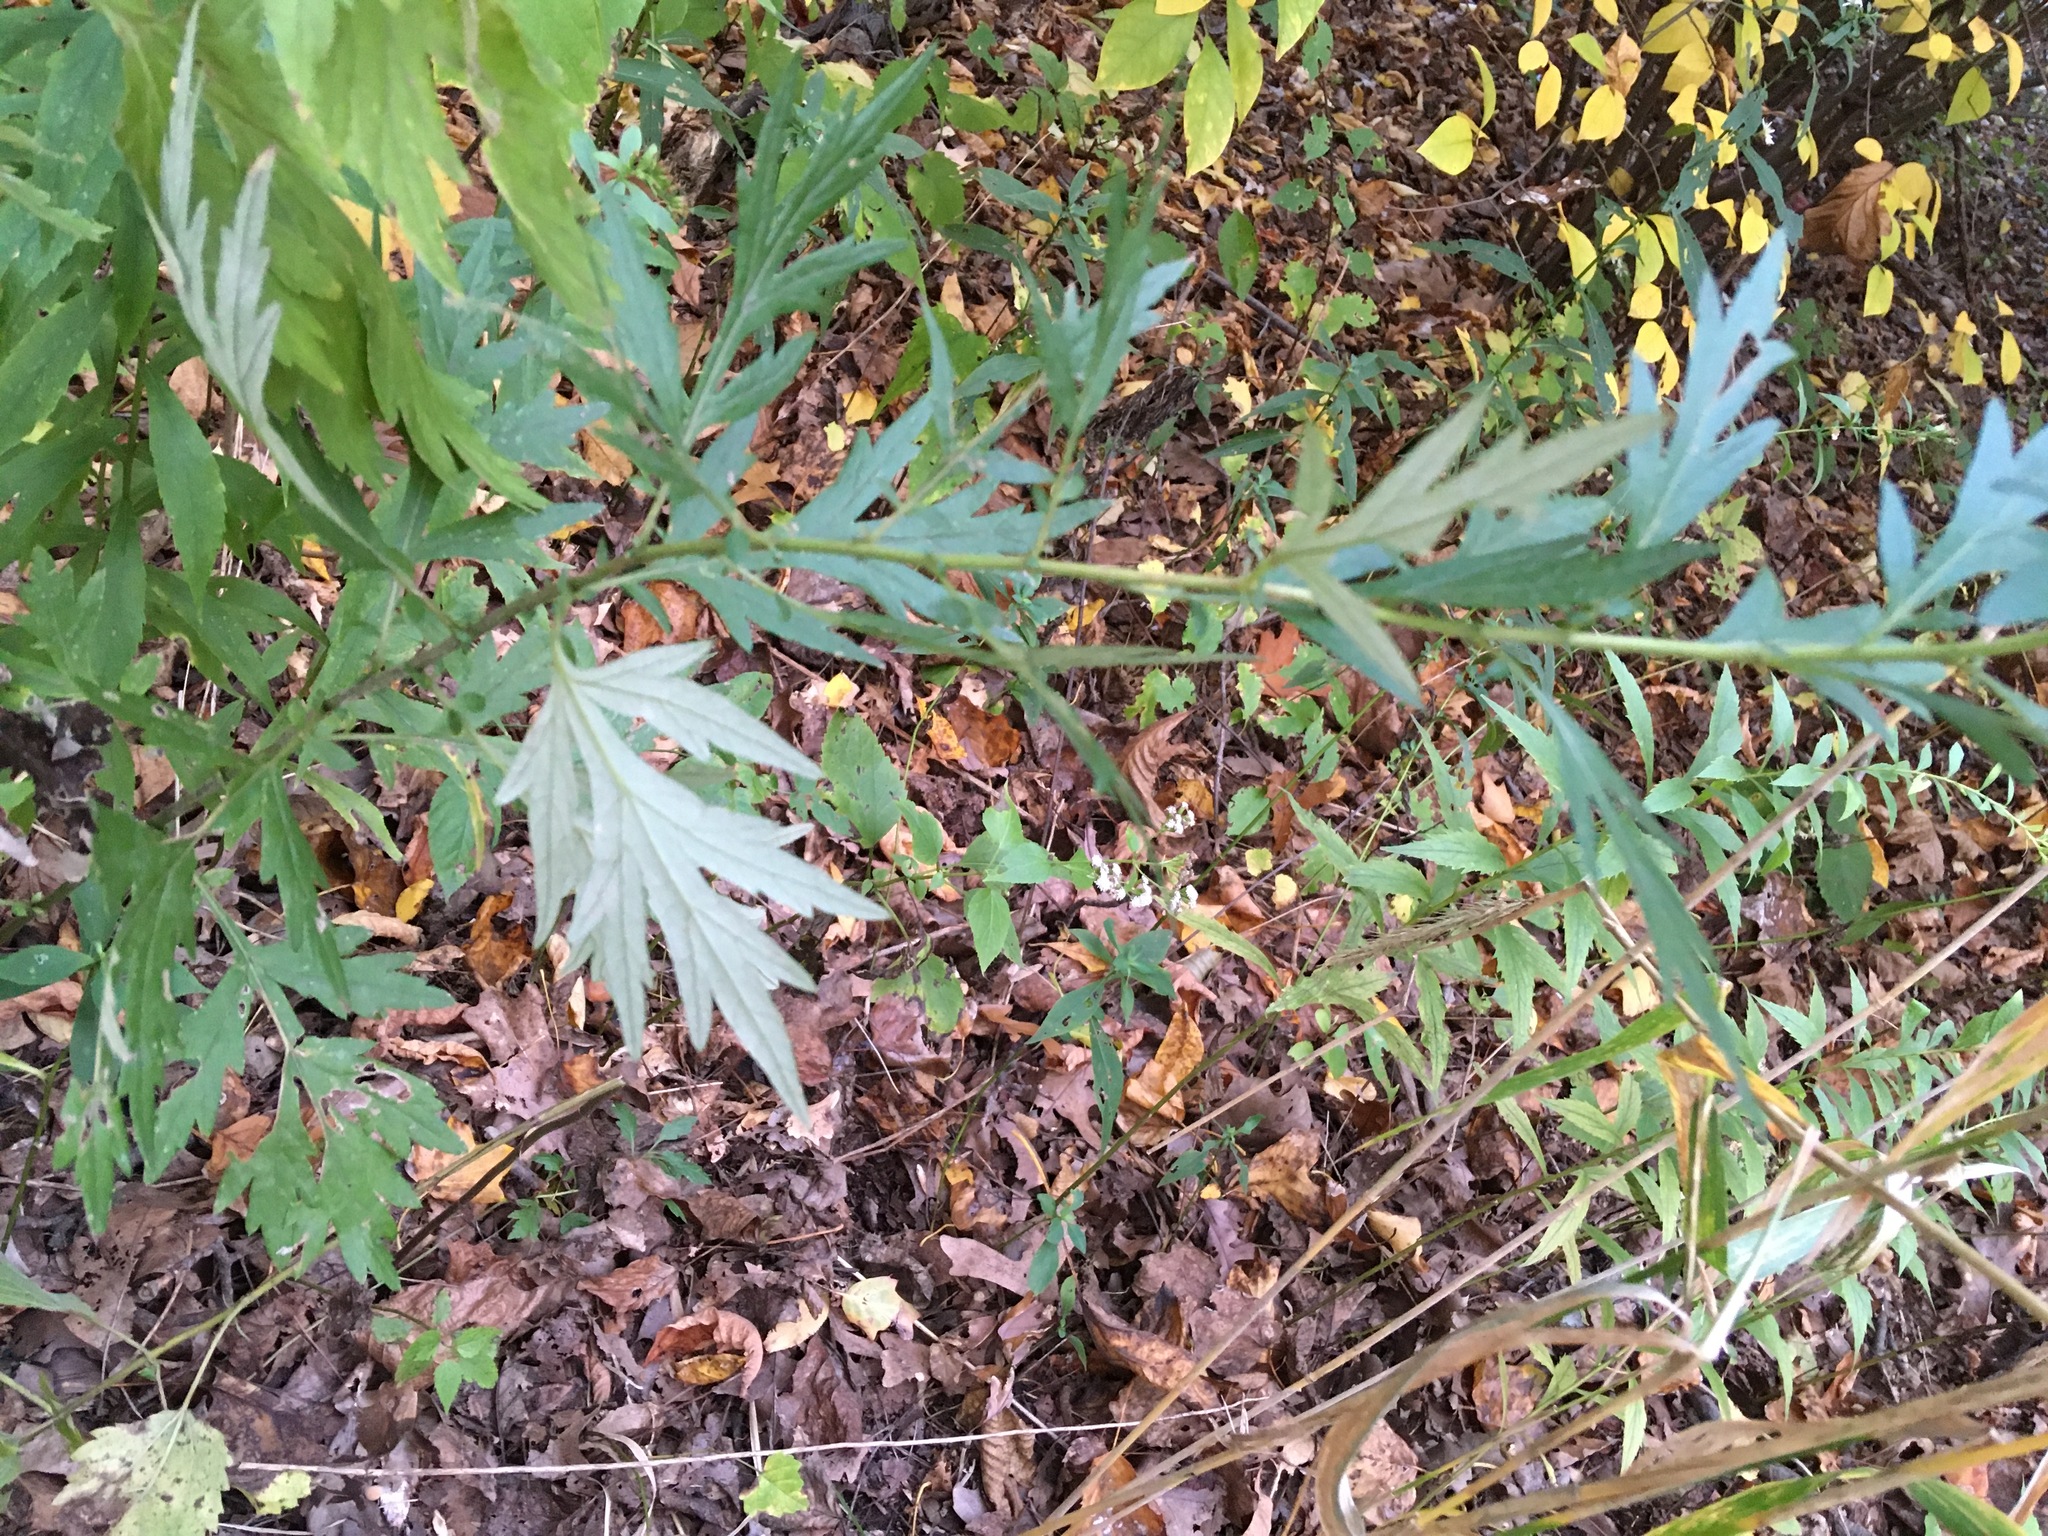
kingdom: Plantae
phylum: Tracheophyta
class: Magnoliopsida
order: Asterales
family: Asteraceae
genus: Artemisia
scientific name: Artemisia vulgaris
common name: Mugwort
